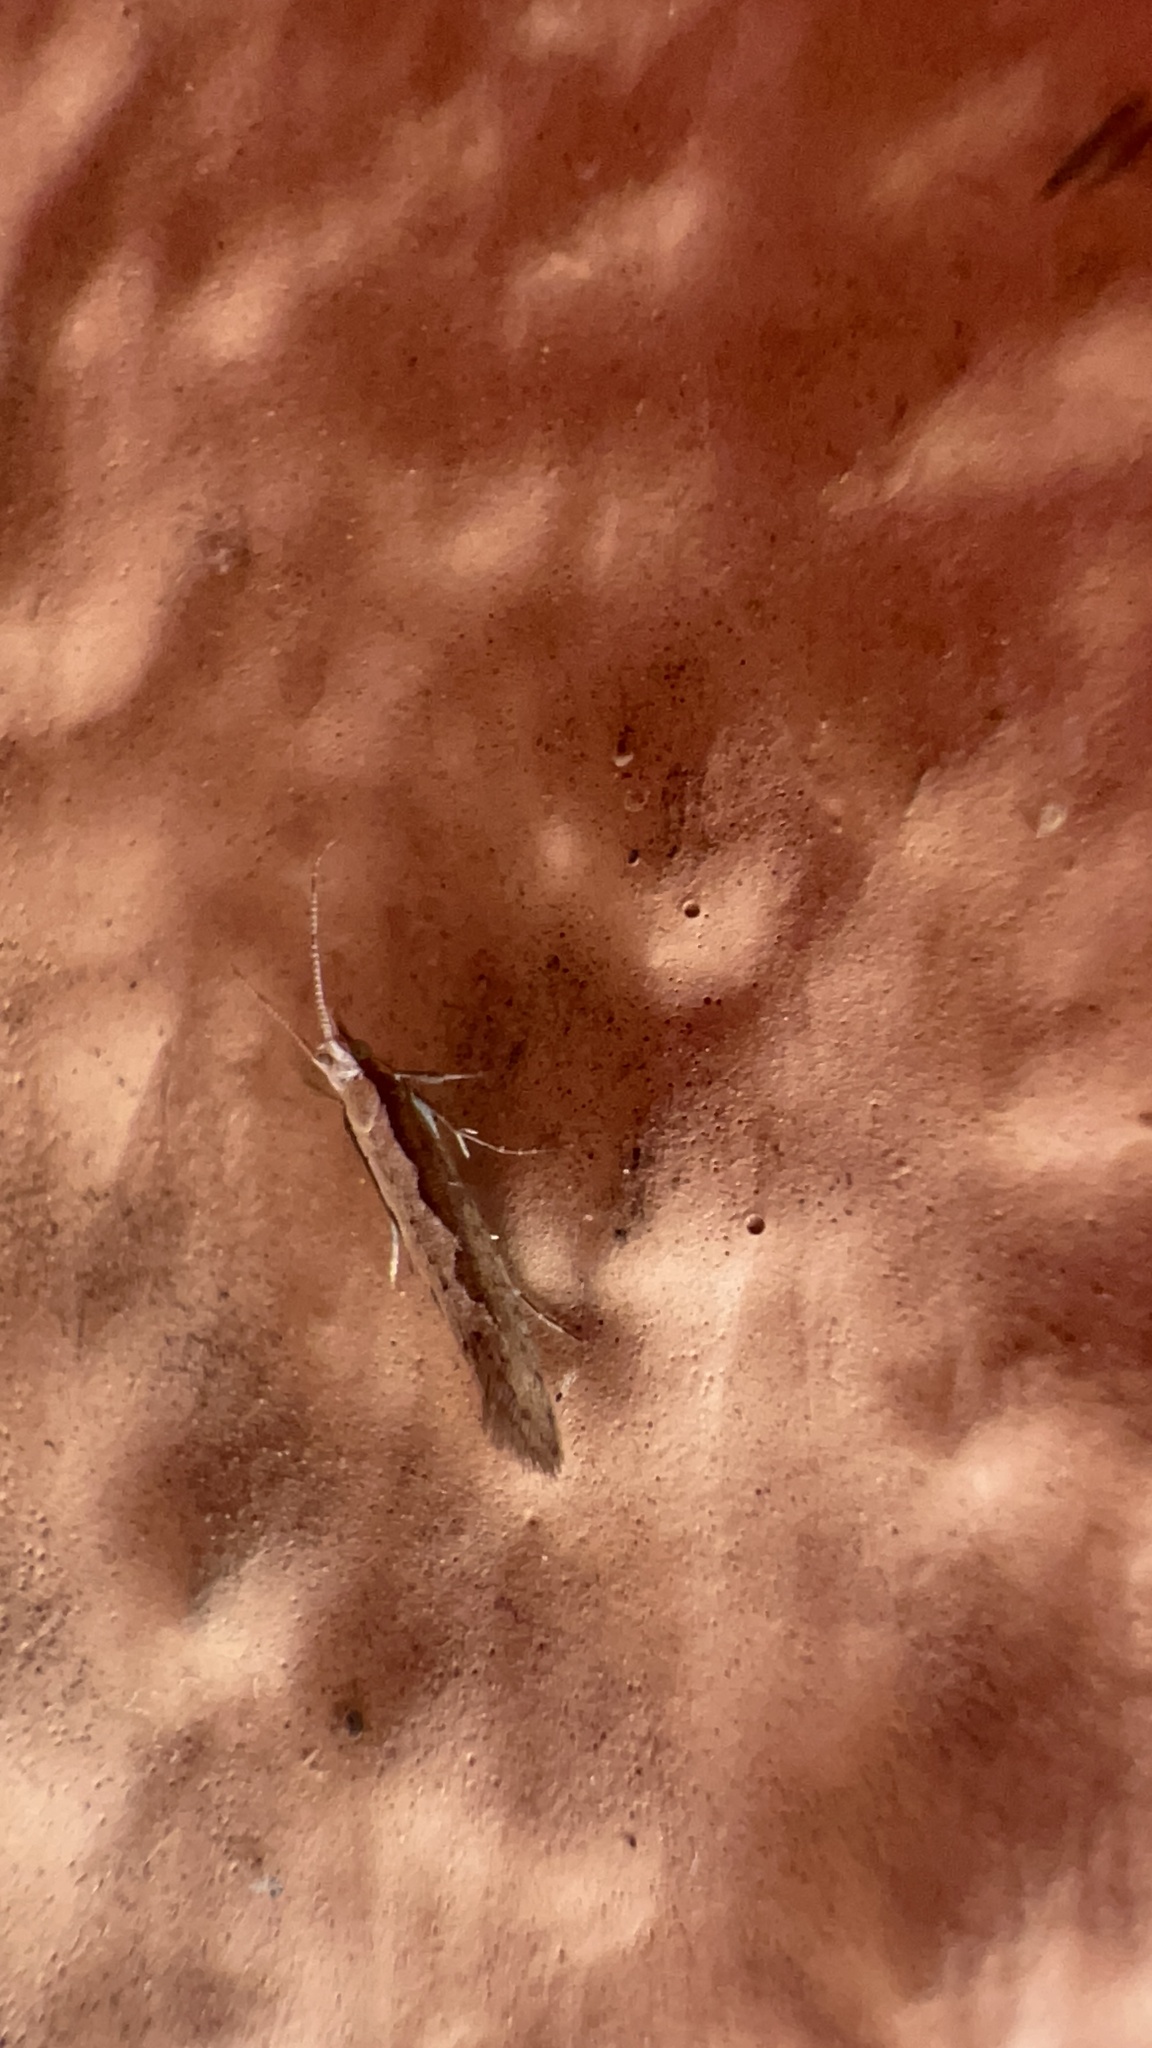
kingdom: Animalia
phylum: Arthropoda
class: Insecta
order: Lepidoptera
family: Plutellidae
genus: Plutella
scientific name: Plutella xylostella
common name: Diamond-back moth
